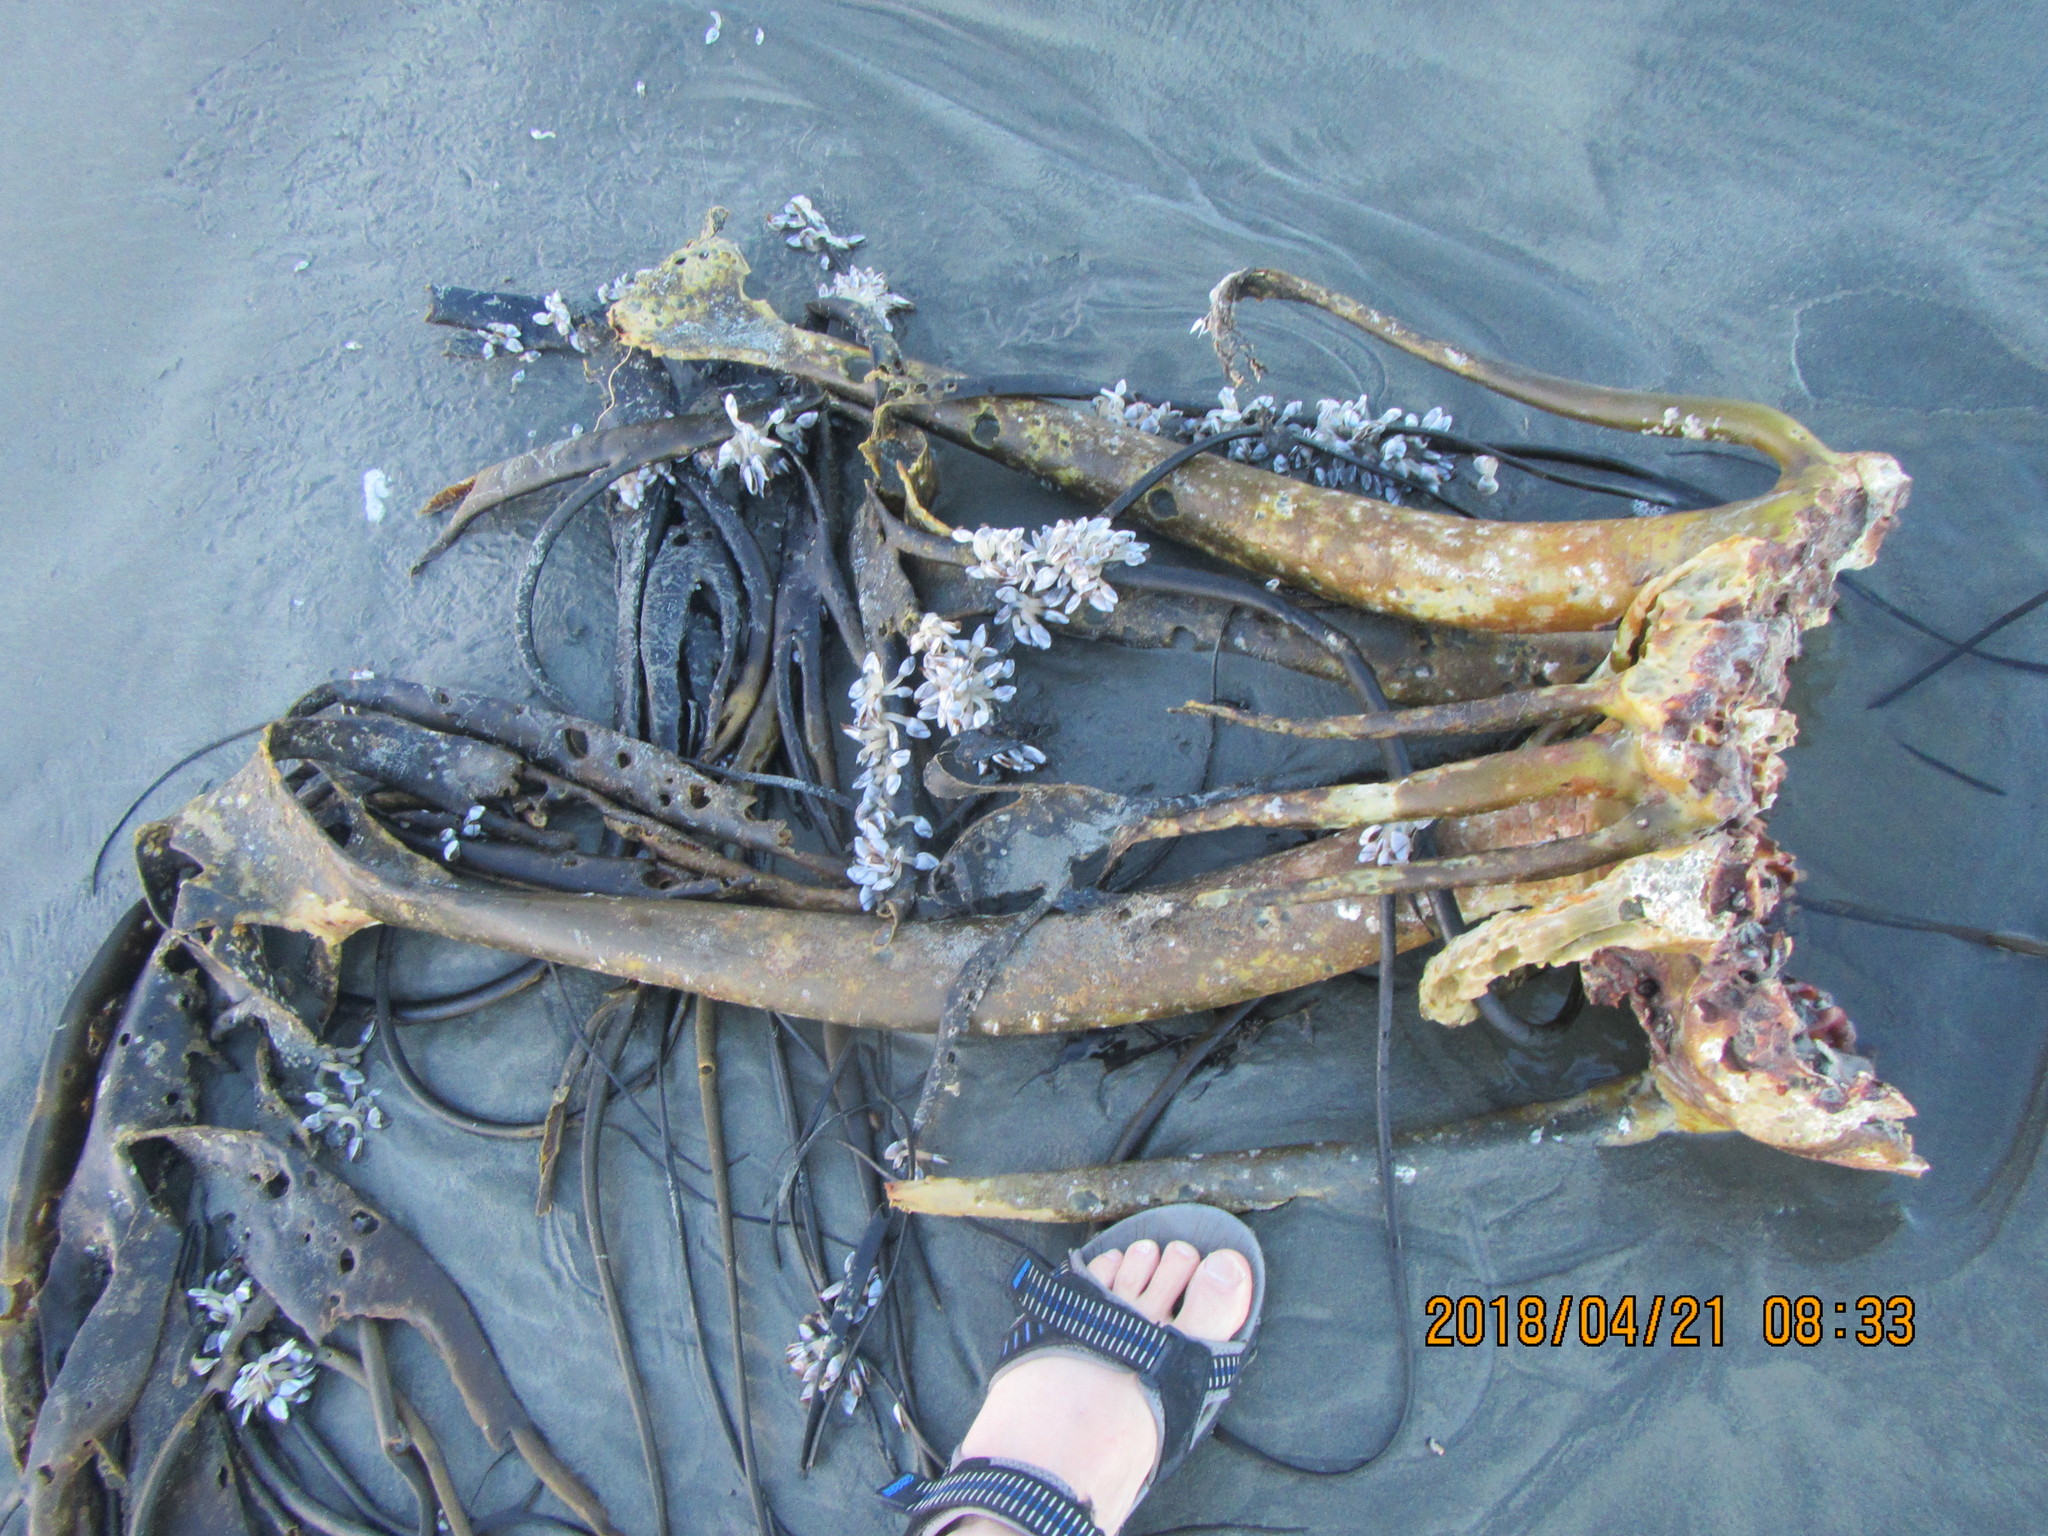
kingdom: Chromista
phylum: Ochrophyta
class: Phaeophyceae
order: Fucales
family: Durvillaeaceae
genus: Durvillaea
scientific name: Durvillaea antarctica
